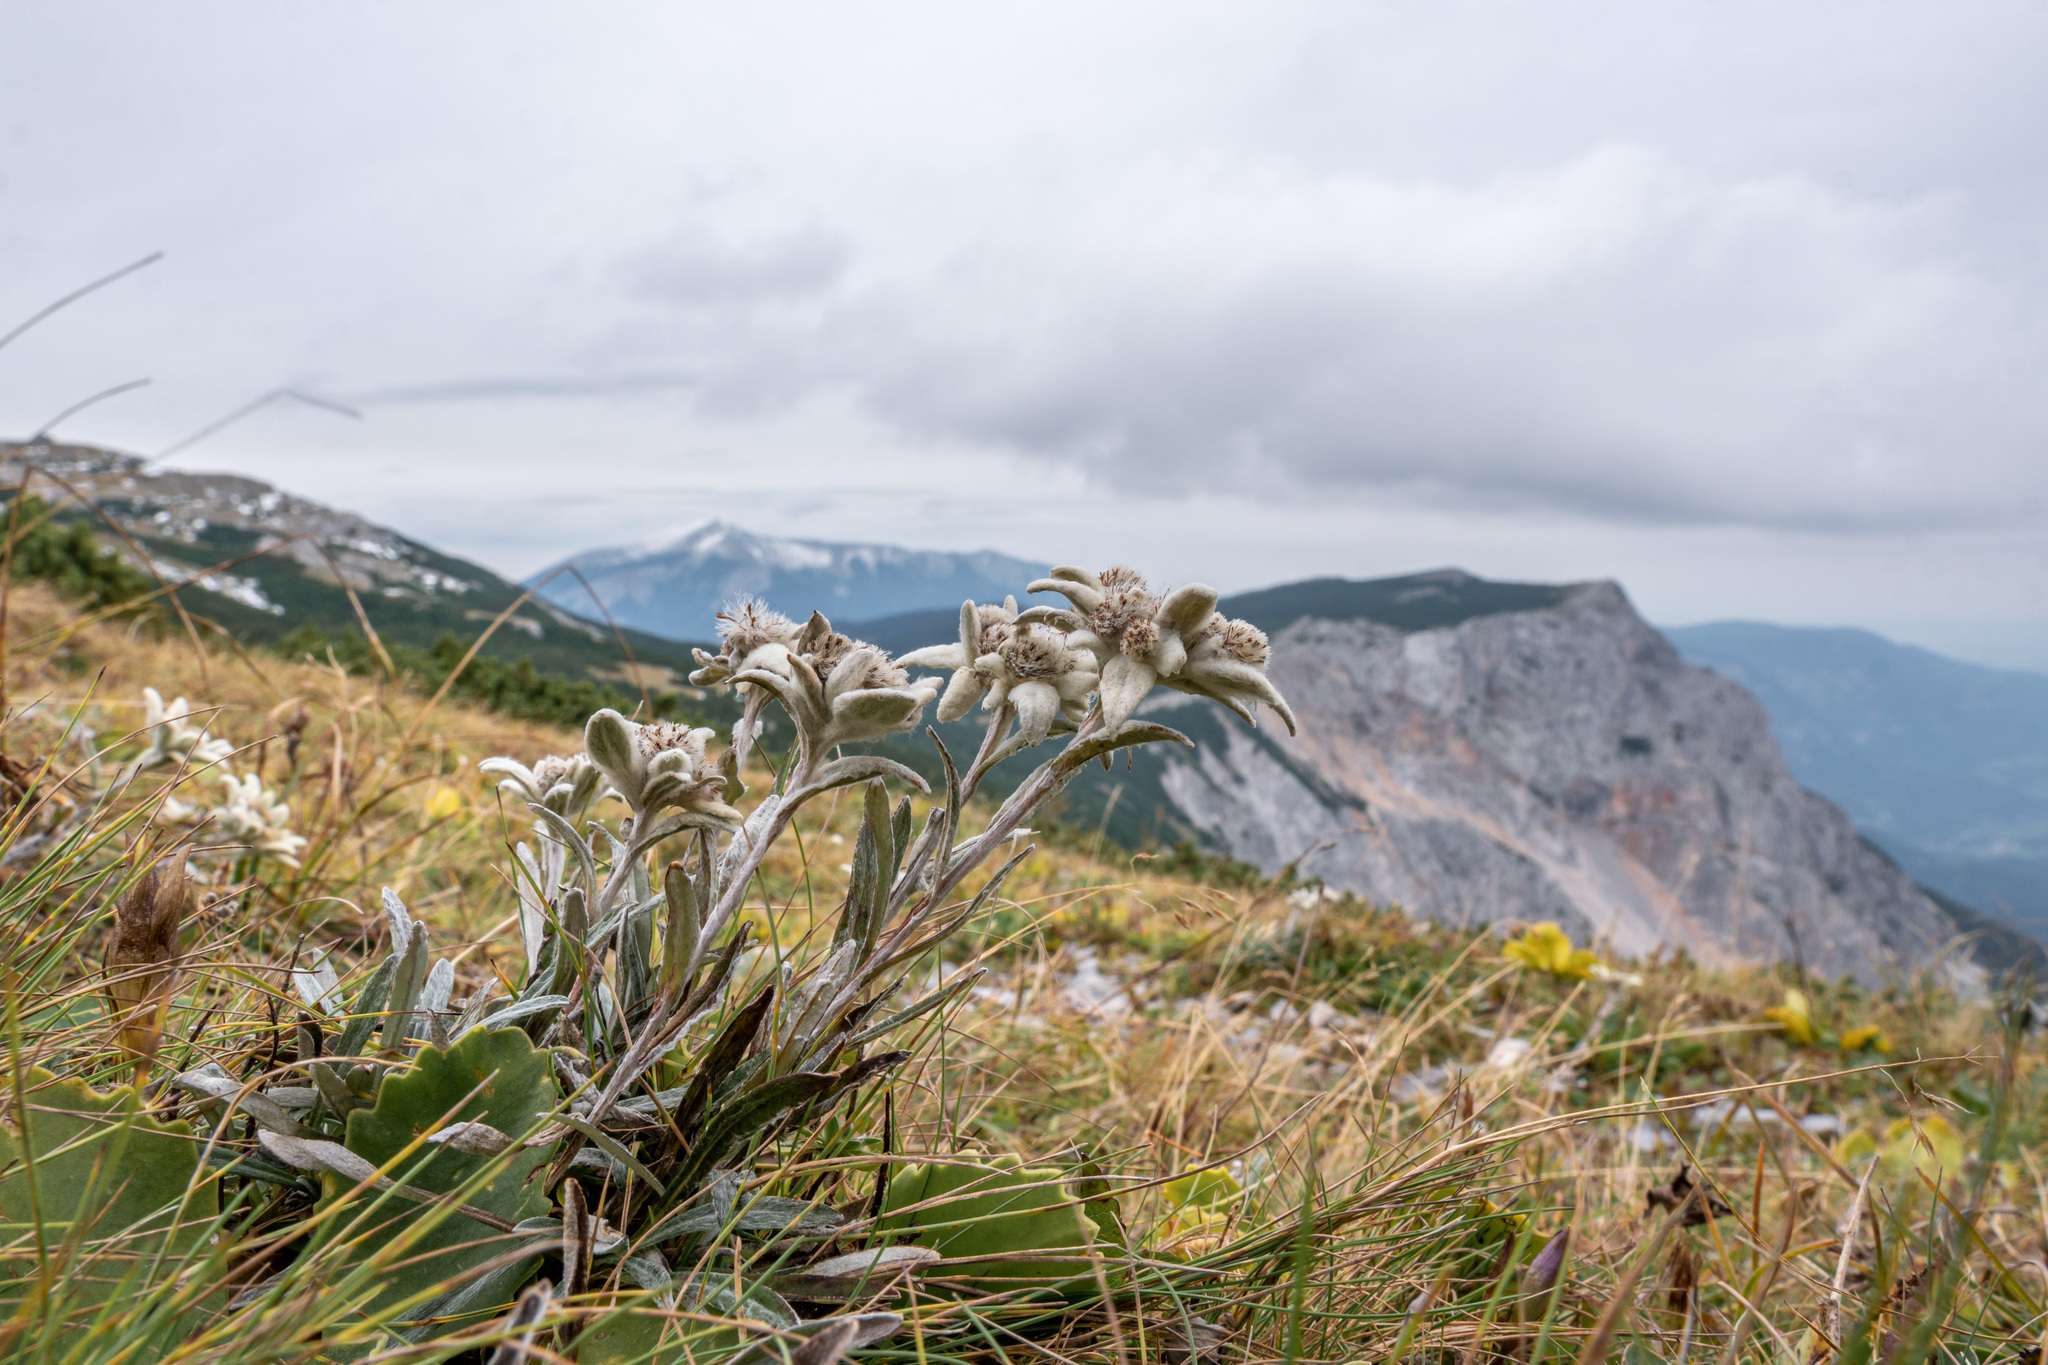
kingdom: Plantae
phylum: Tracheophyta
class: Magnoliopsida
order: Asterales
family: Asteraceae
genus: Leontopodium
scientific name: Leontopodium nivale
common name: Edelweiss
